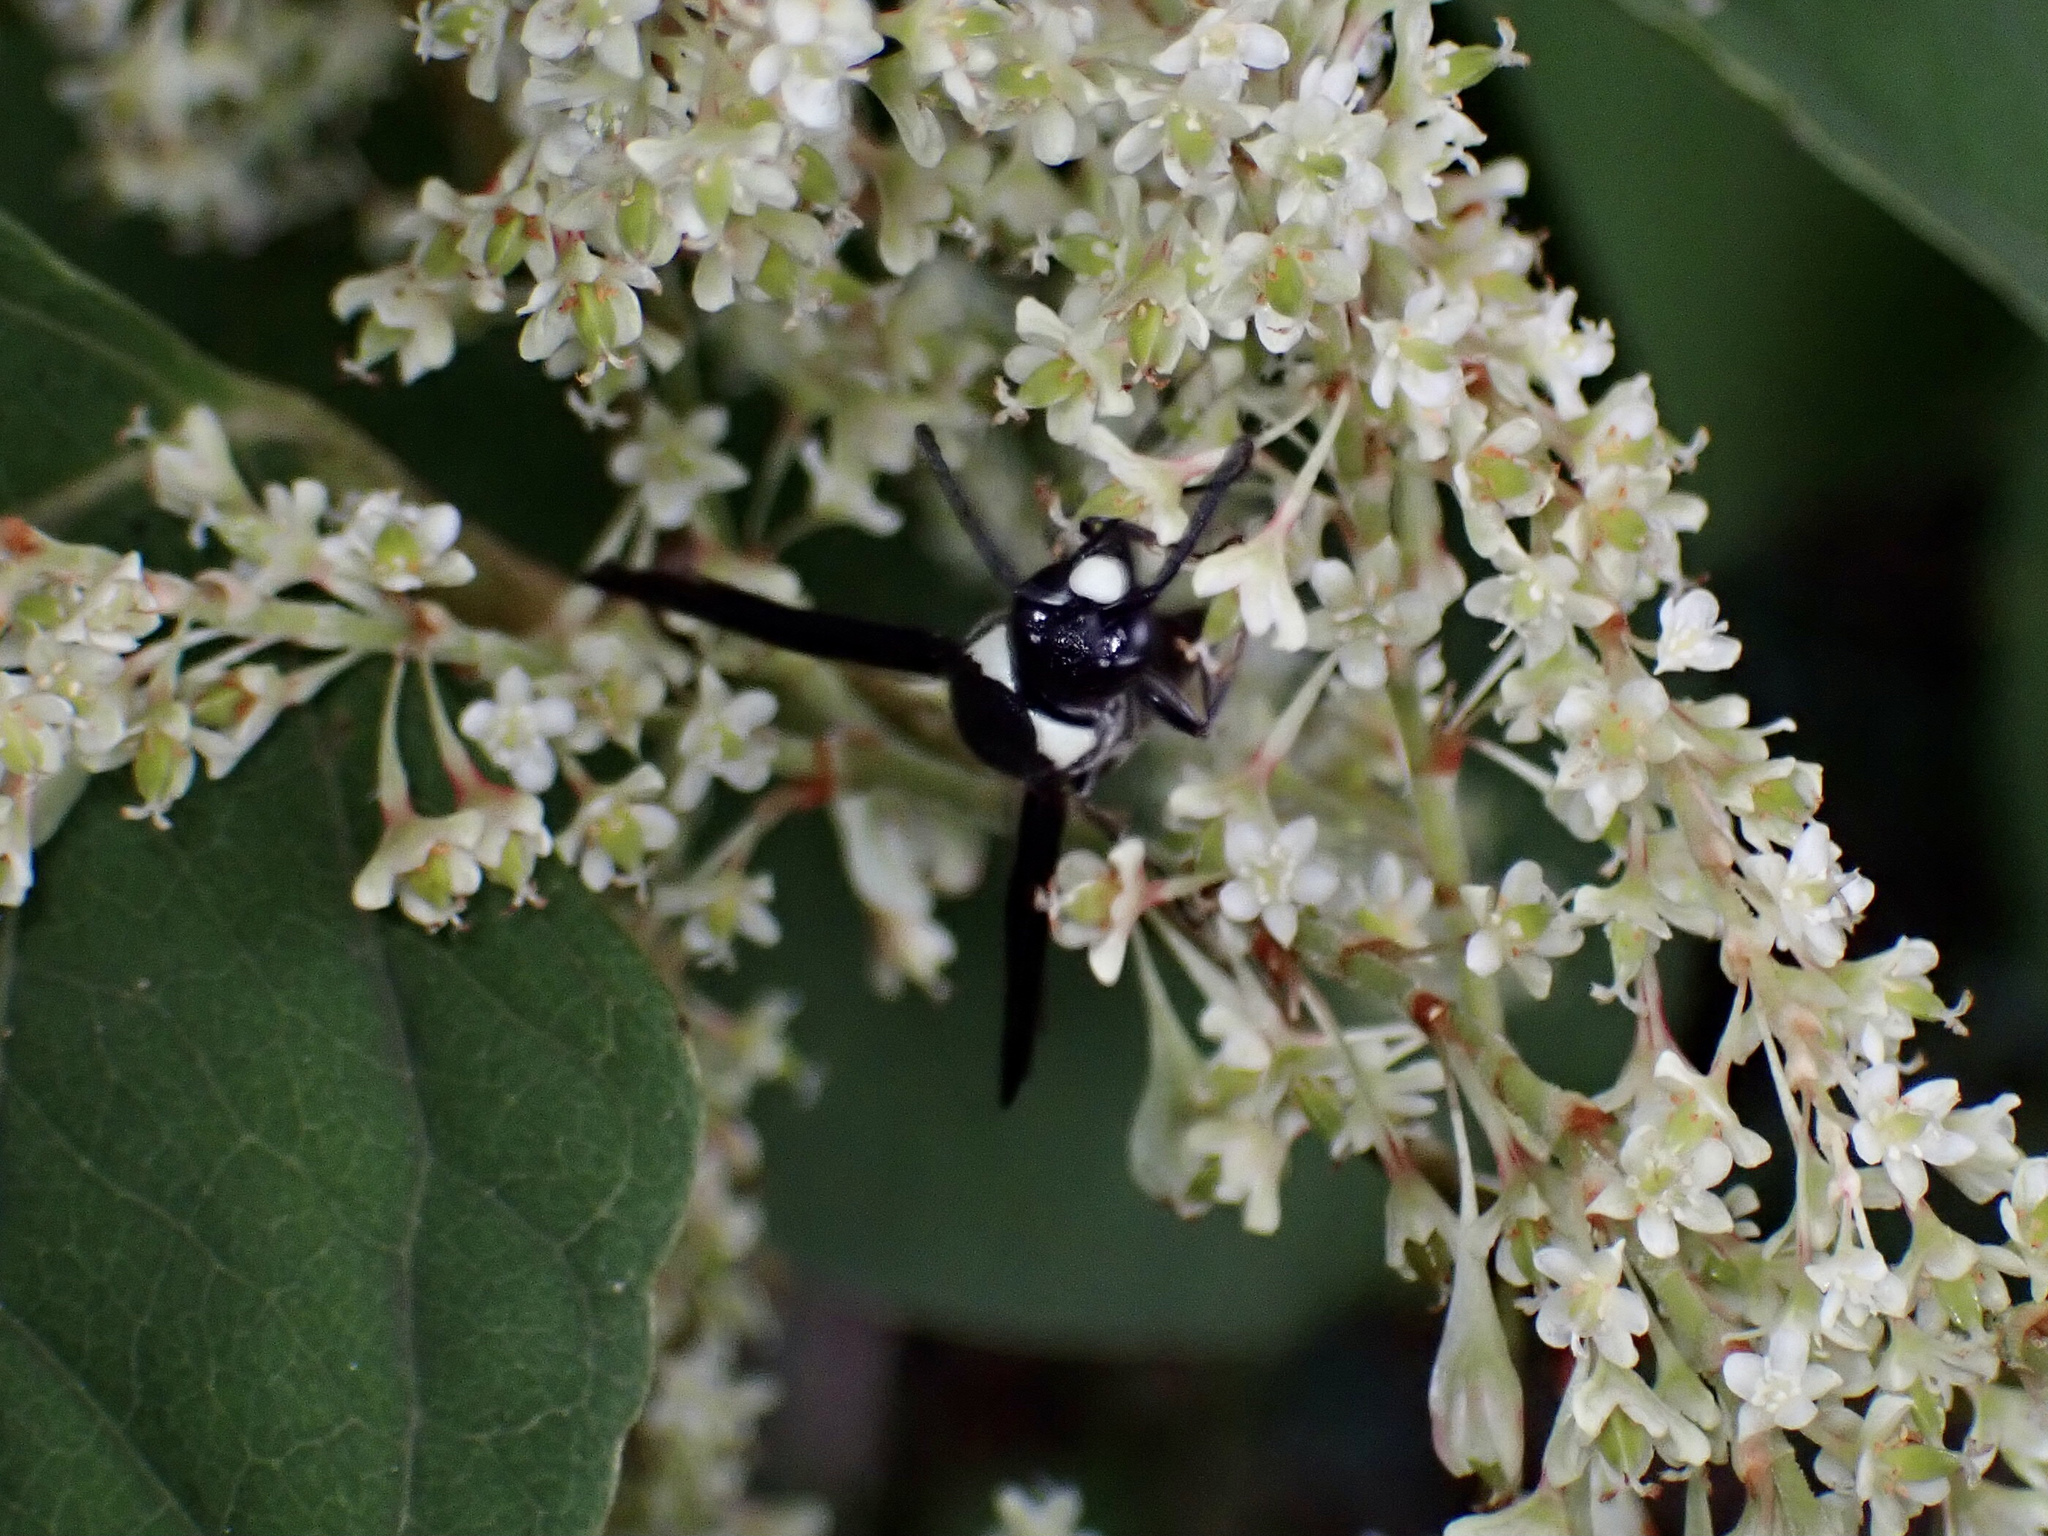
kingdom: Animalia
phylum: Arthropoda
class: Insecta
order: Hymenoptera
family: Eumenidae
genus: Monobia
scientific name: Monobia quadridens
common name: Four-toothed mason wasp
